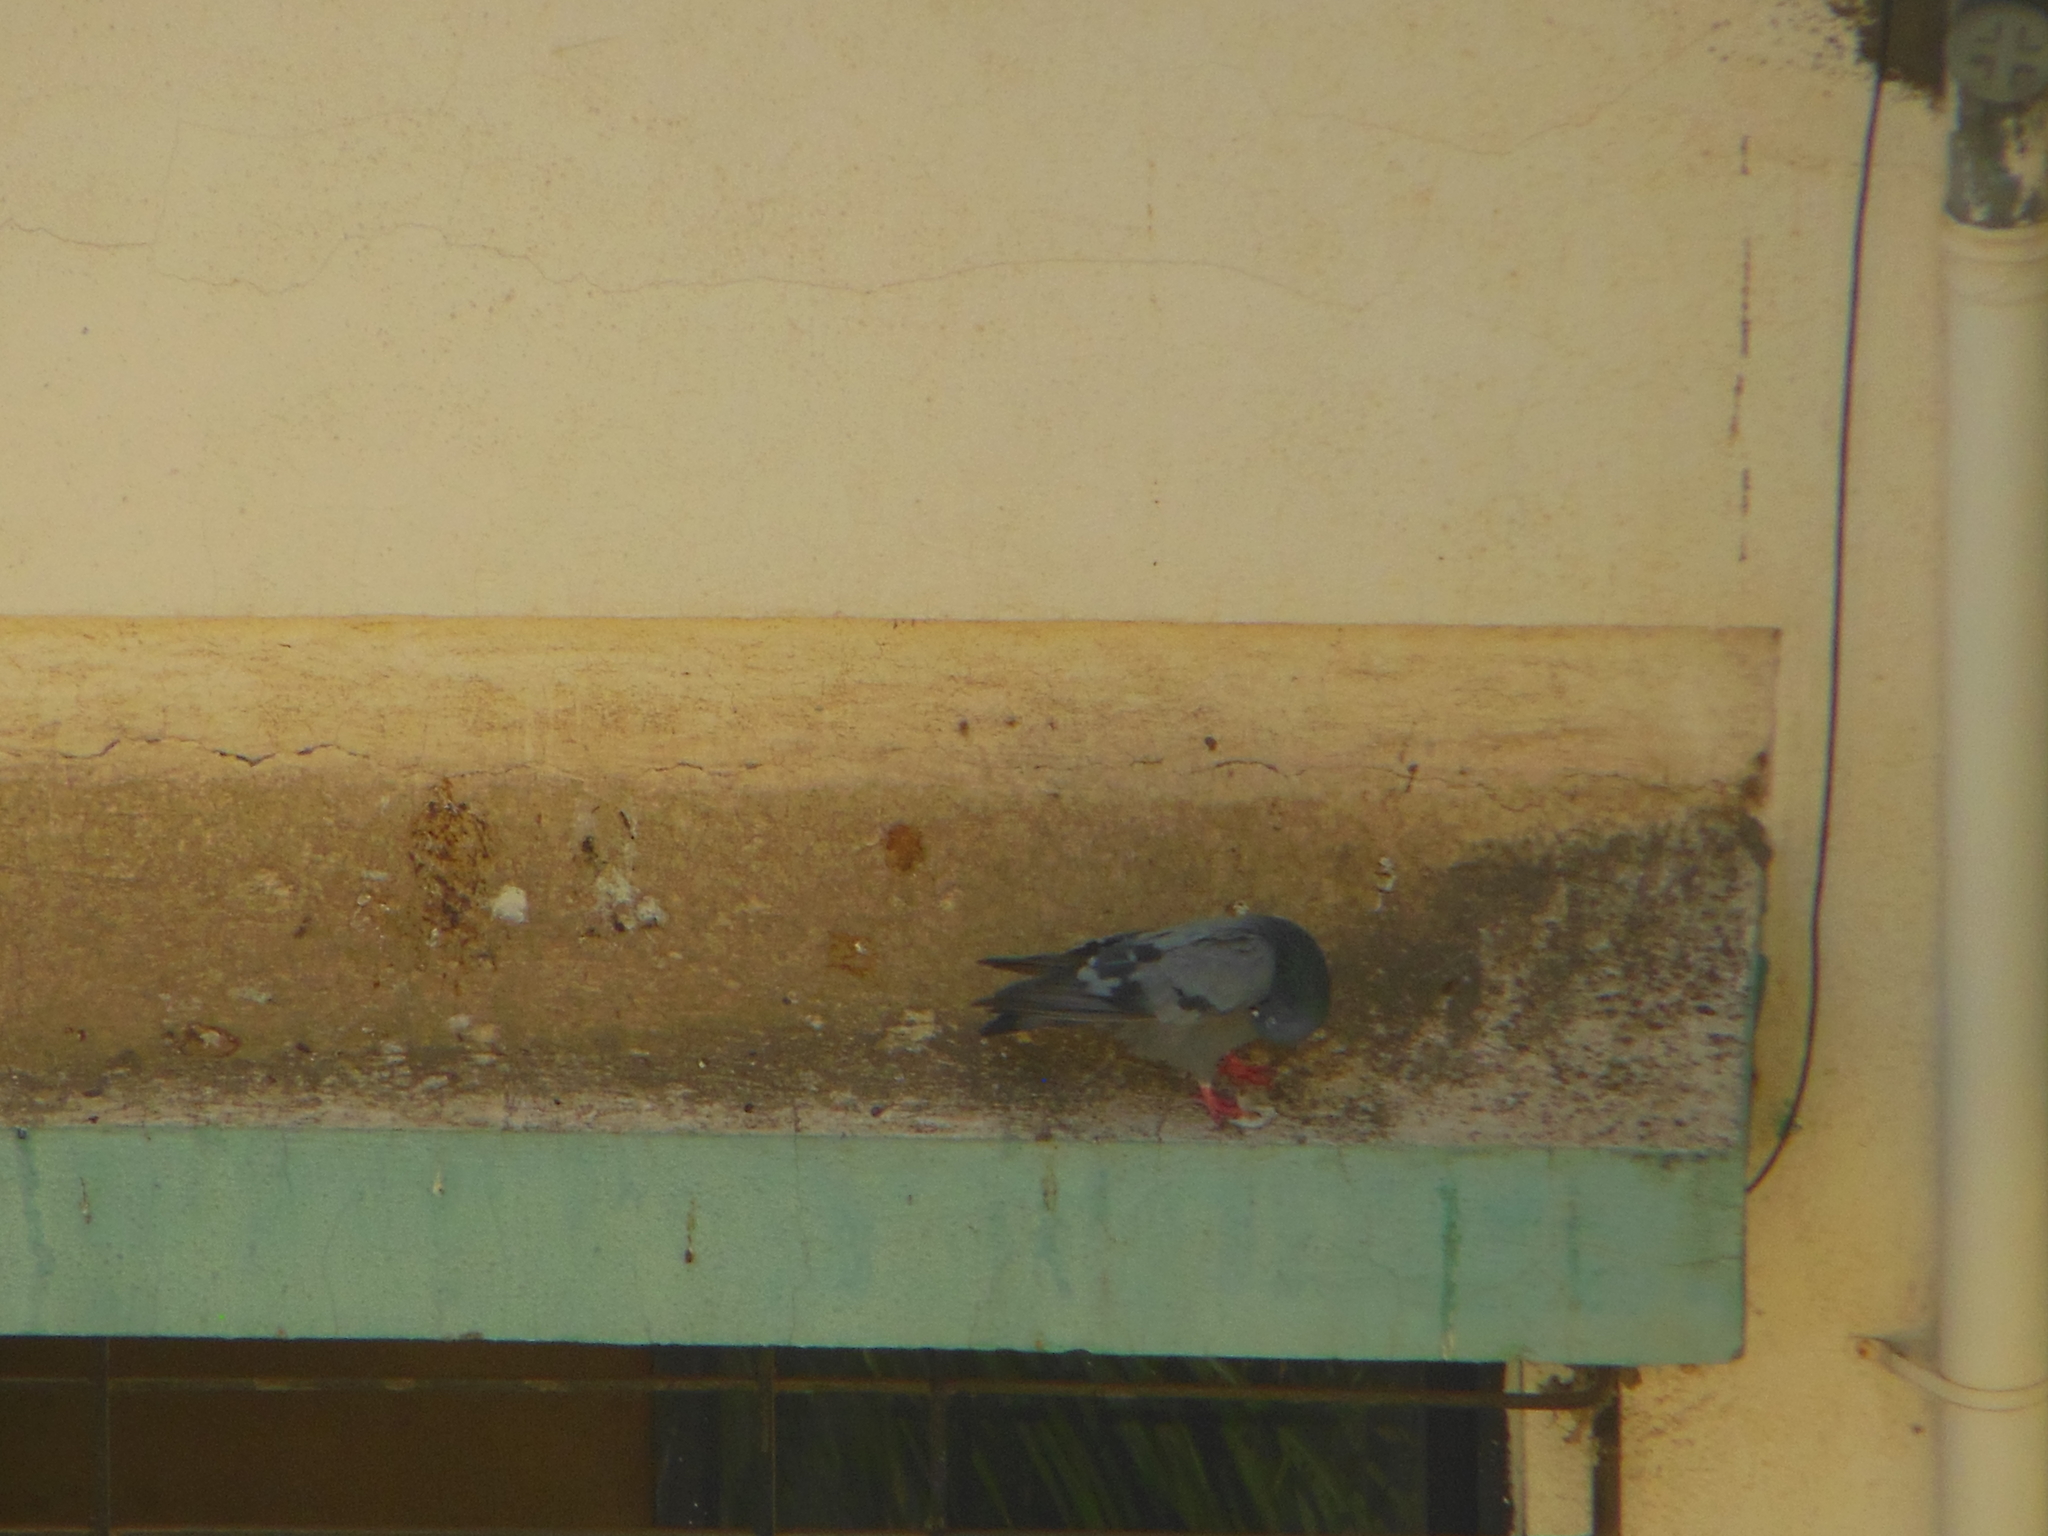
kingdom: Animalia
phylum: Chordata
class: Aves
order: Columbiformes
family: Columbidae
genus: Columba
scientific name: Columba livia
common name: Rock pigeon
